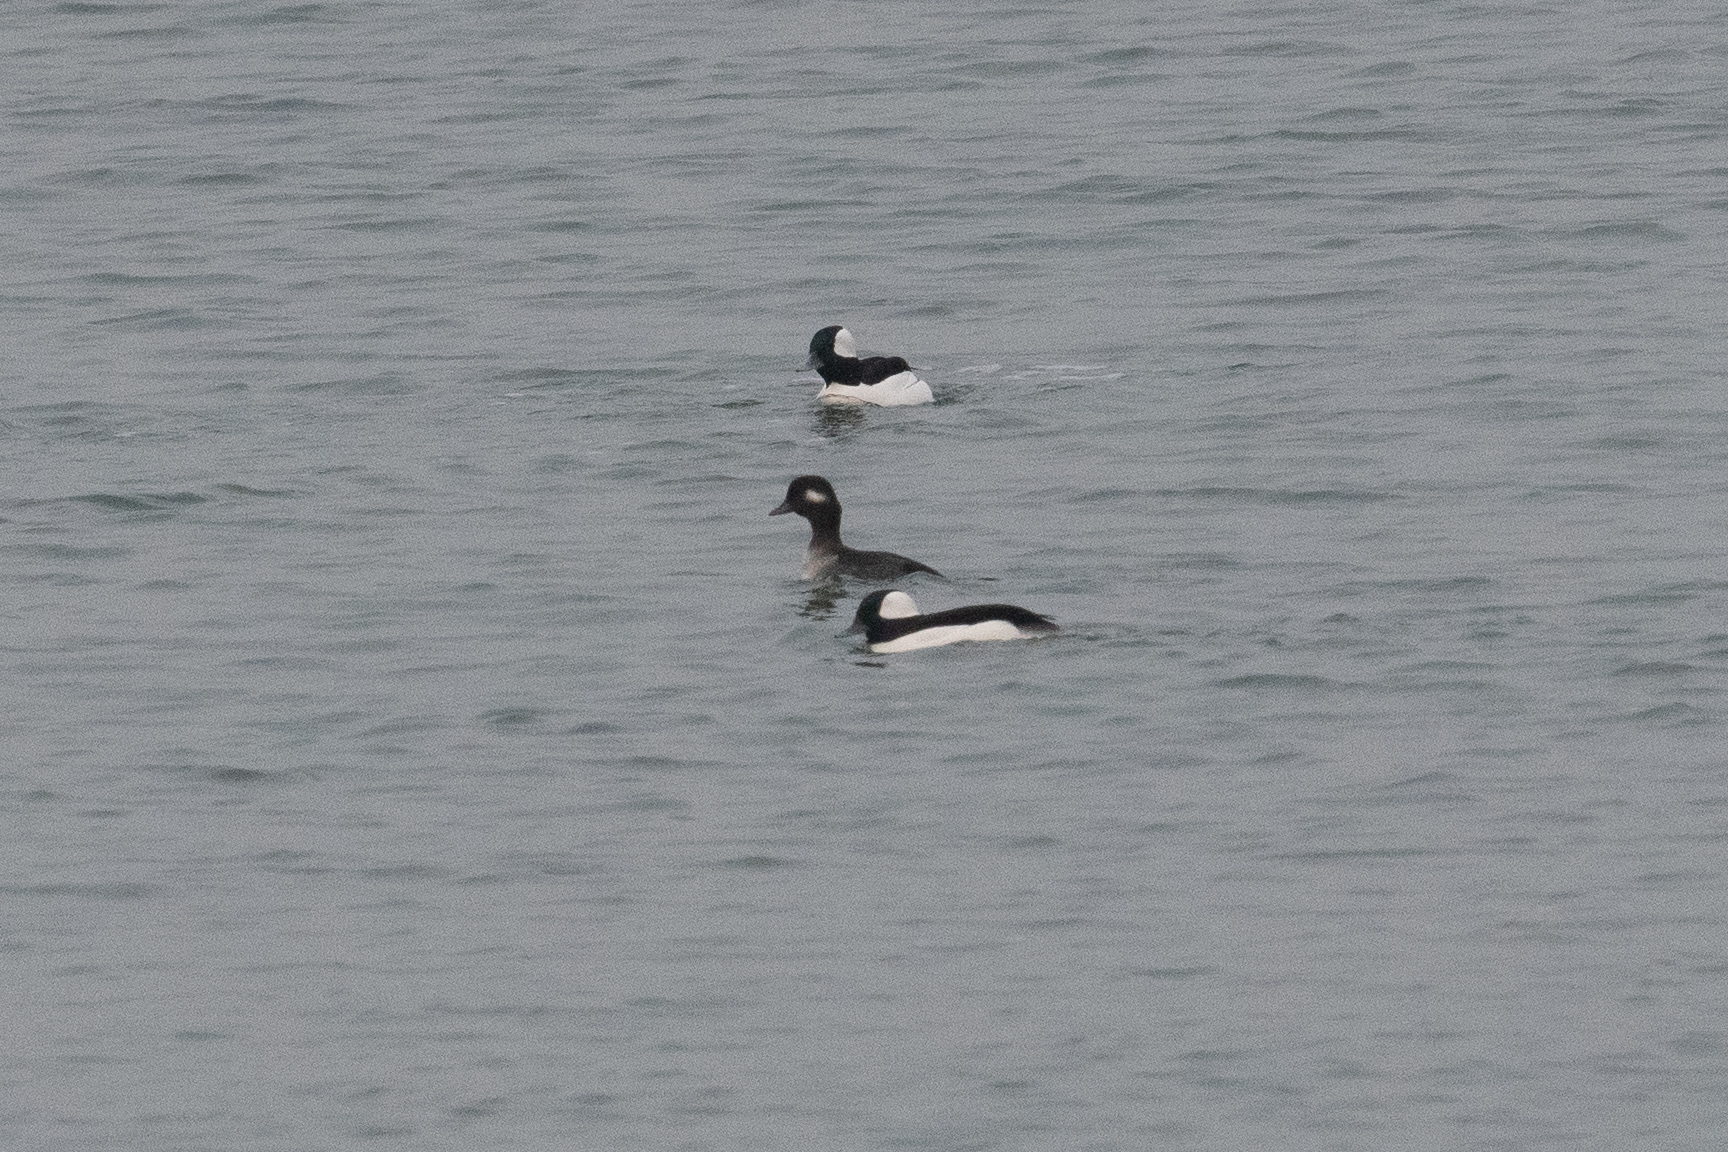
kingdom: Animalia
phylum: Chordata
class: Aves
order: Anseriformes
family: Anatidae
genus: Bucephala
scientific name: Bucephala albeola
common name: Bufflehead
